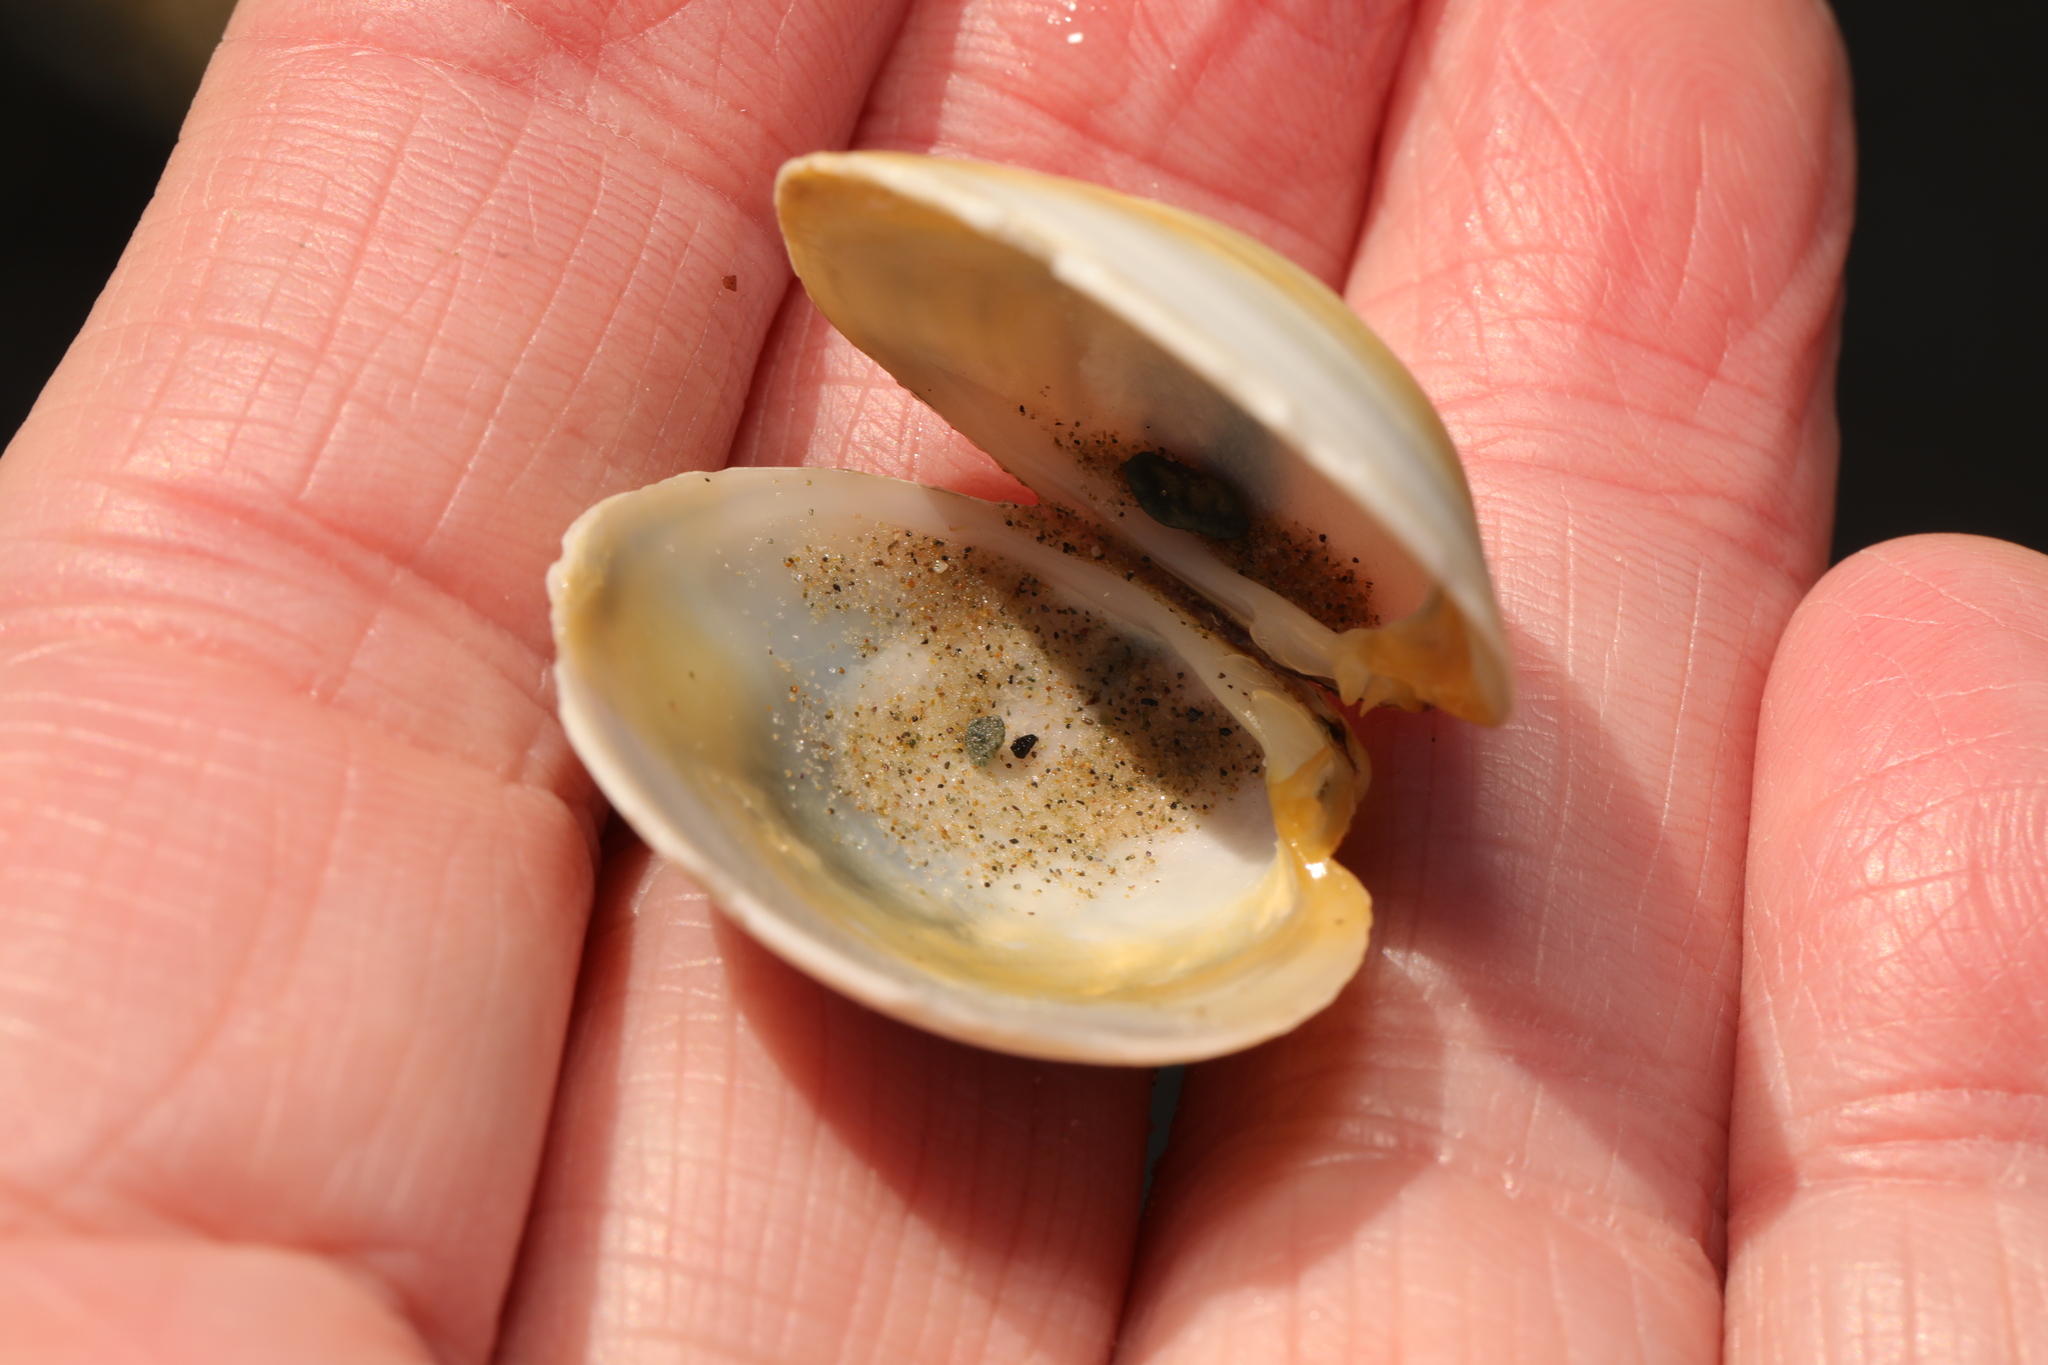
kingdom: Animalia
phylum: Mollusca
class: Bivalvia
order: Venerida
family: Veneridae
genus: Dosinia
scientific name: Dosinia exoleta
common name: Rayed artemis
